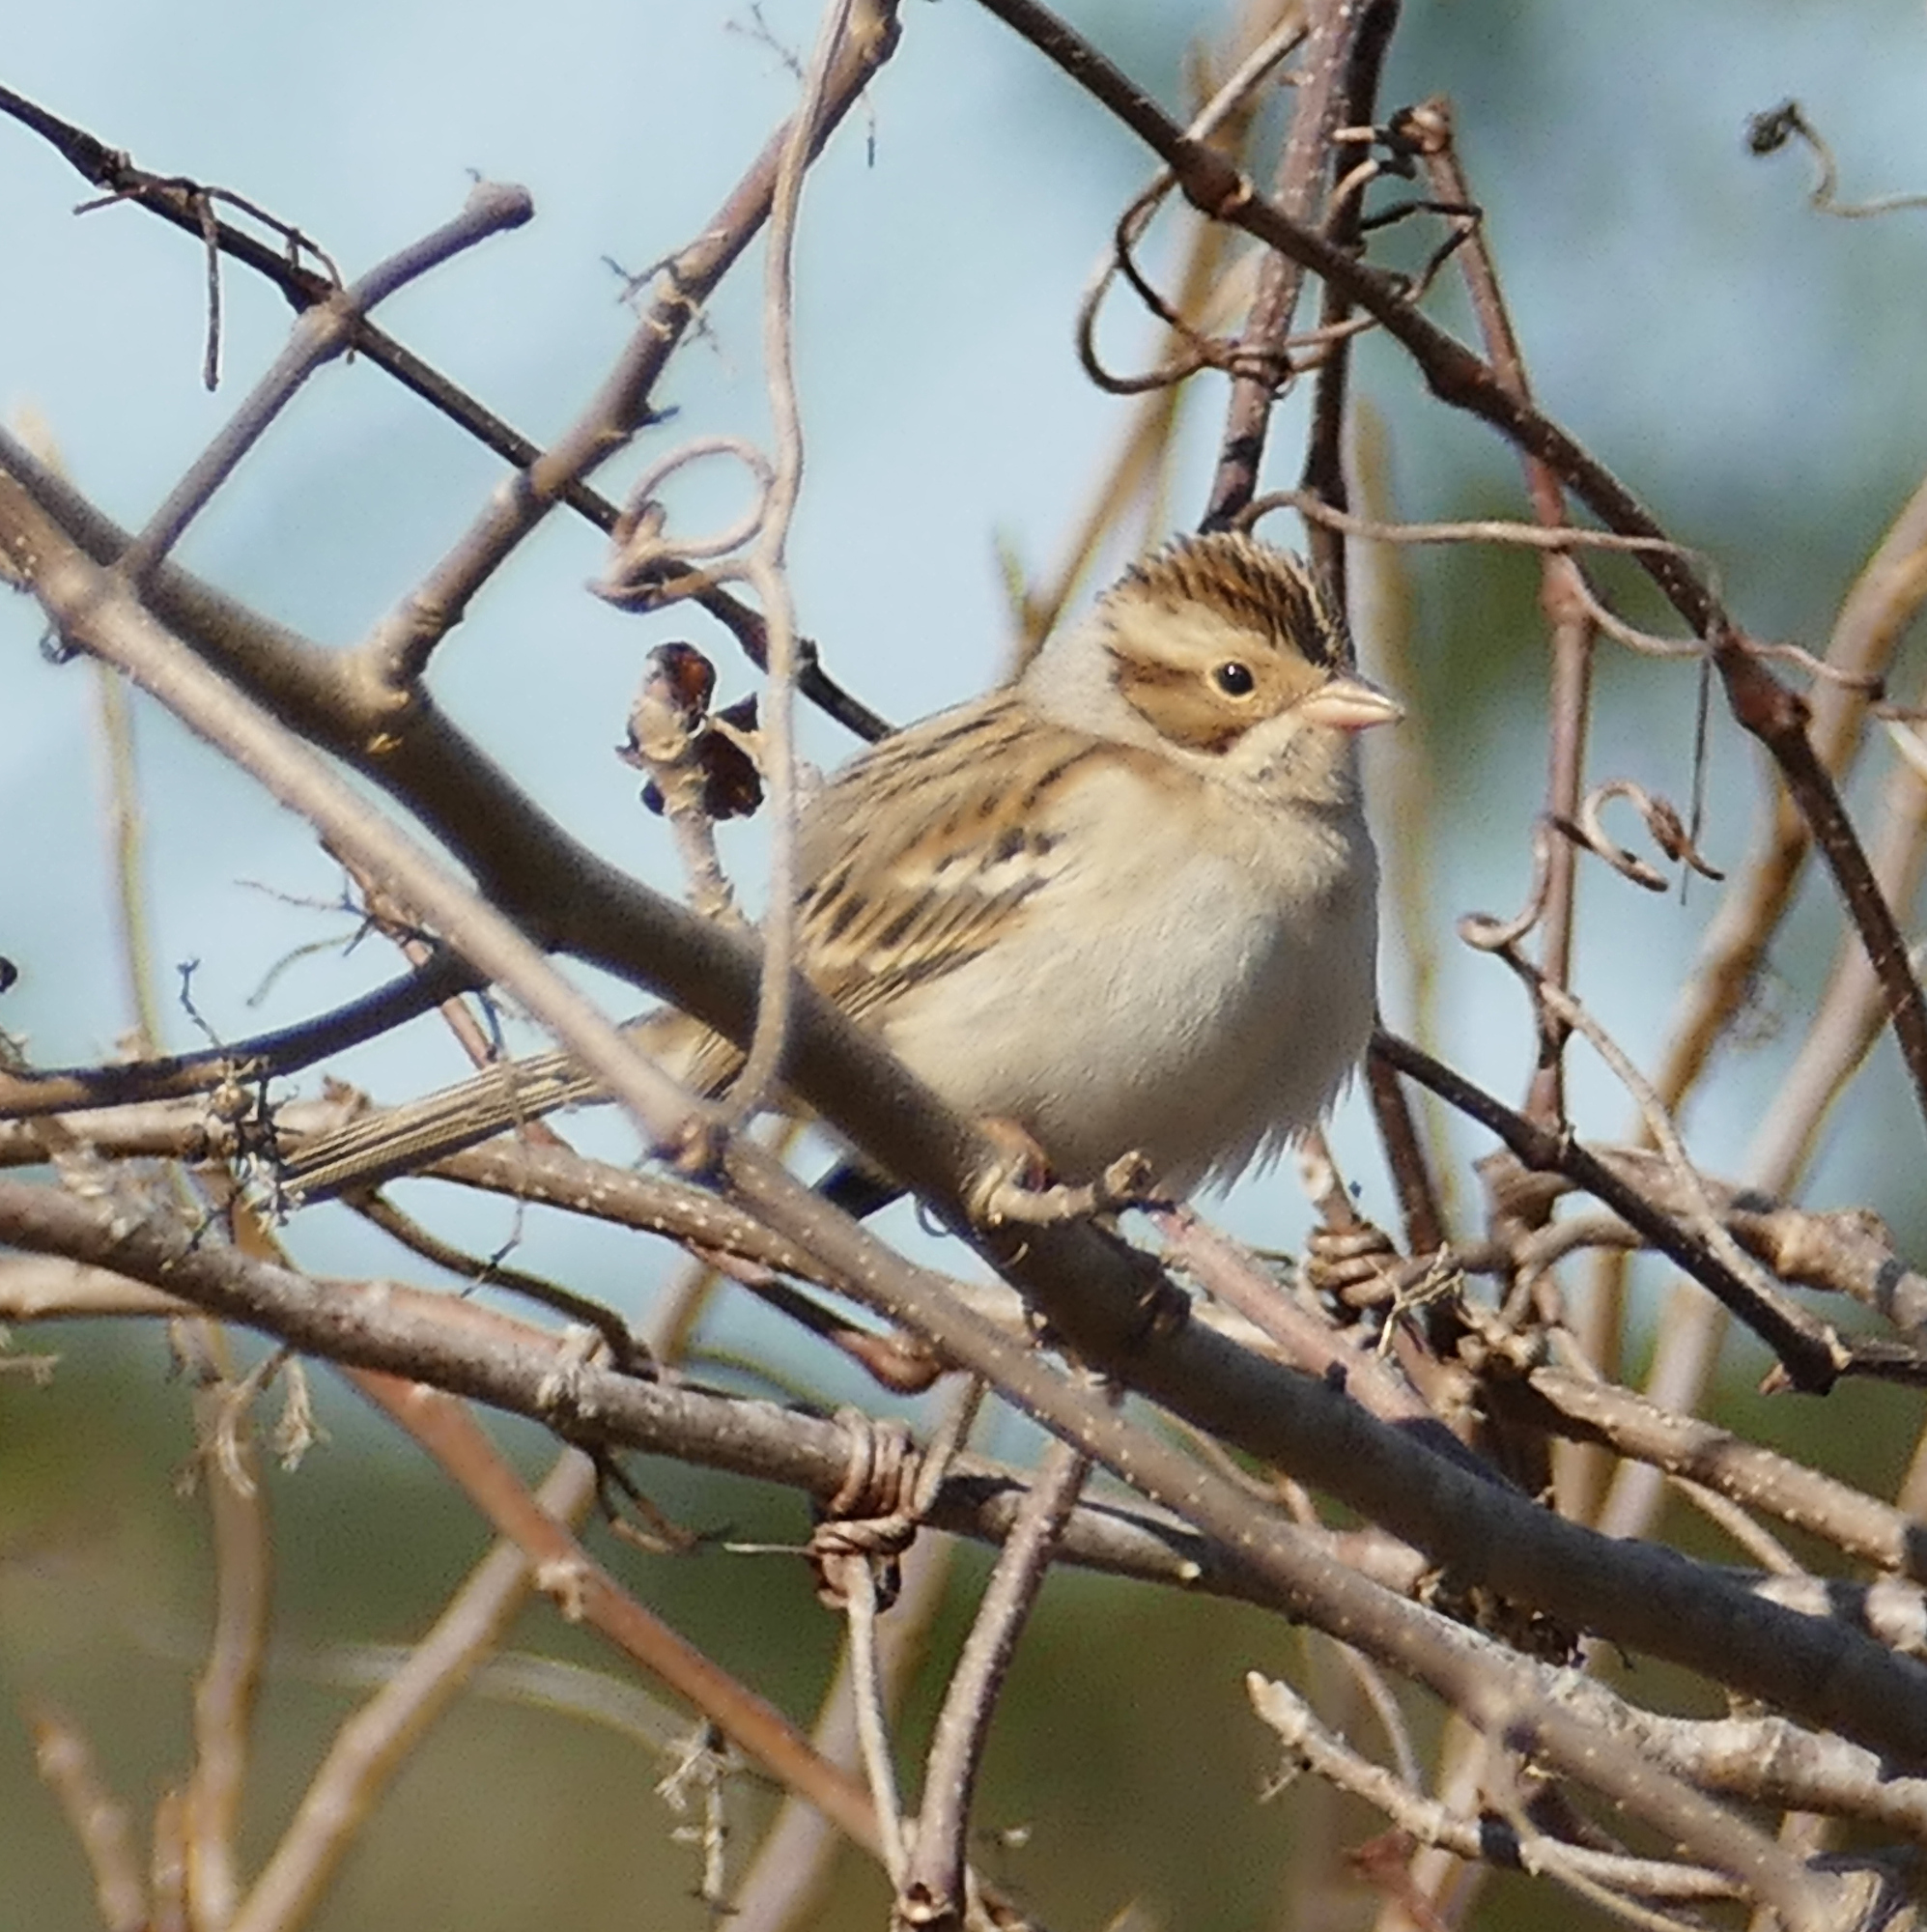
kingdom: Animalia
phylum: Chordata
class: Aves
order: Passeriformes
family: Passerellidae
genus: Spizella
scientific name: Spizella pallida
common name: Clay-colored sparrow
